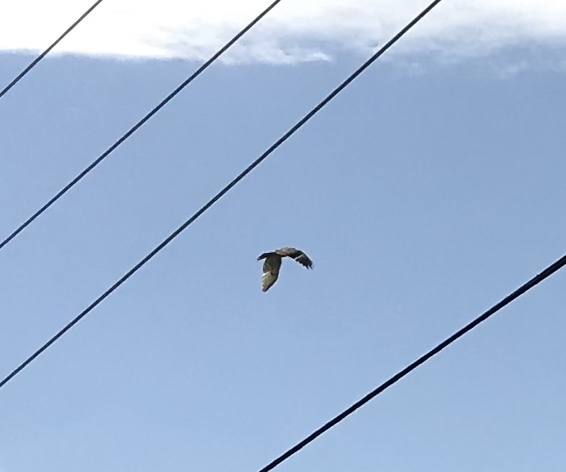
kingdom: Animalia
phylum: Chordata
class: Aves
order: Accipitriformes
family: Accipitridae
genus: Buteo
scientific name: Buteo jamaicensis
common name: Red-tailed hawk
